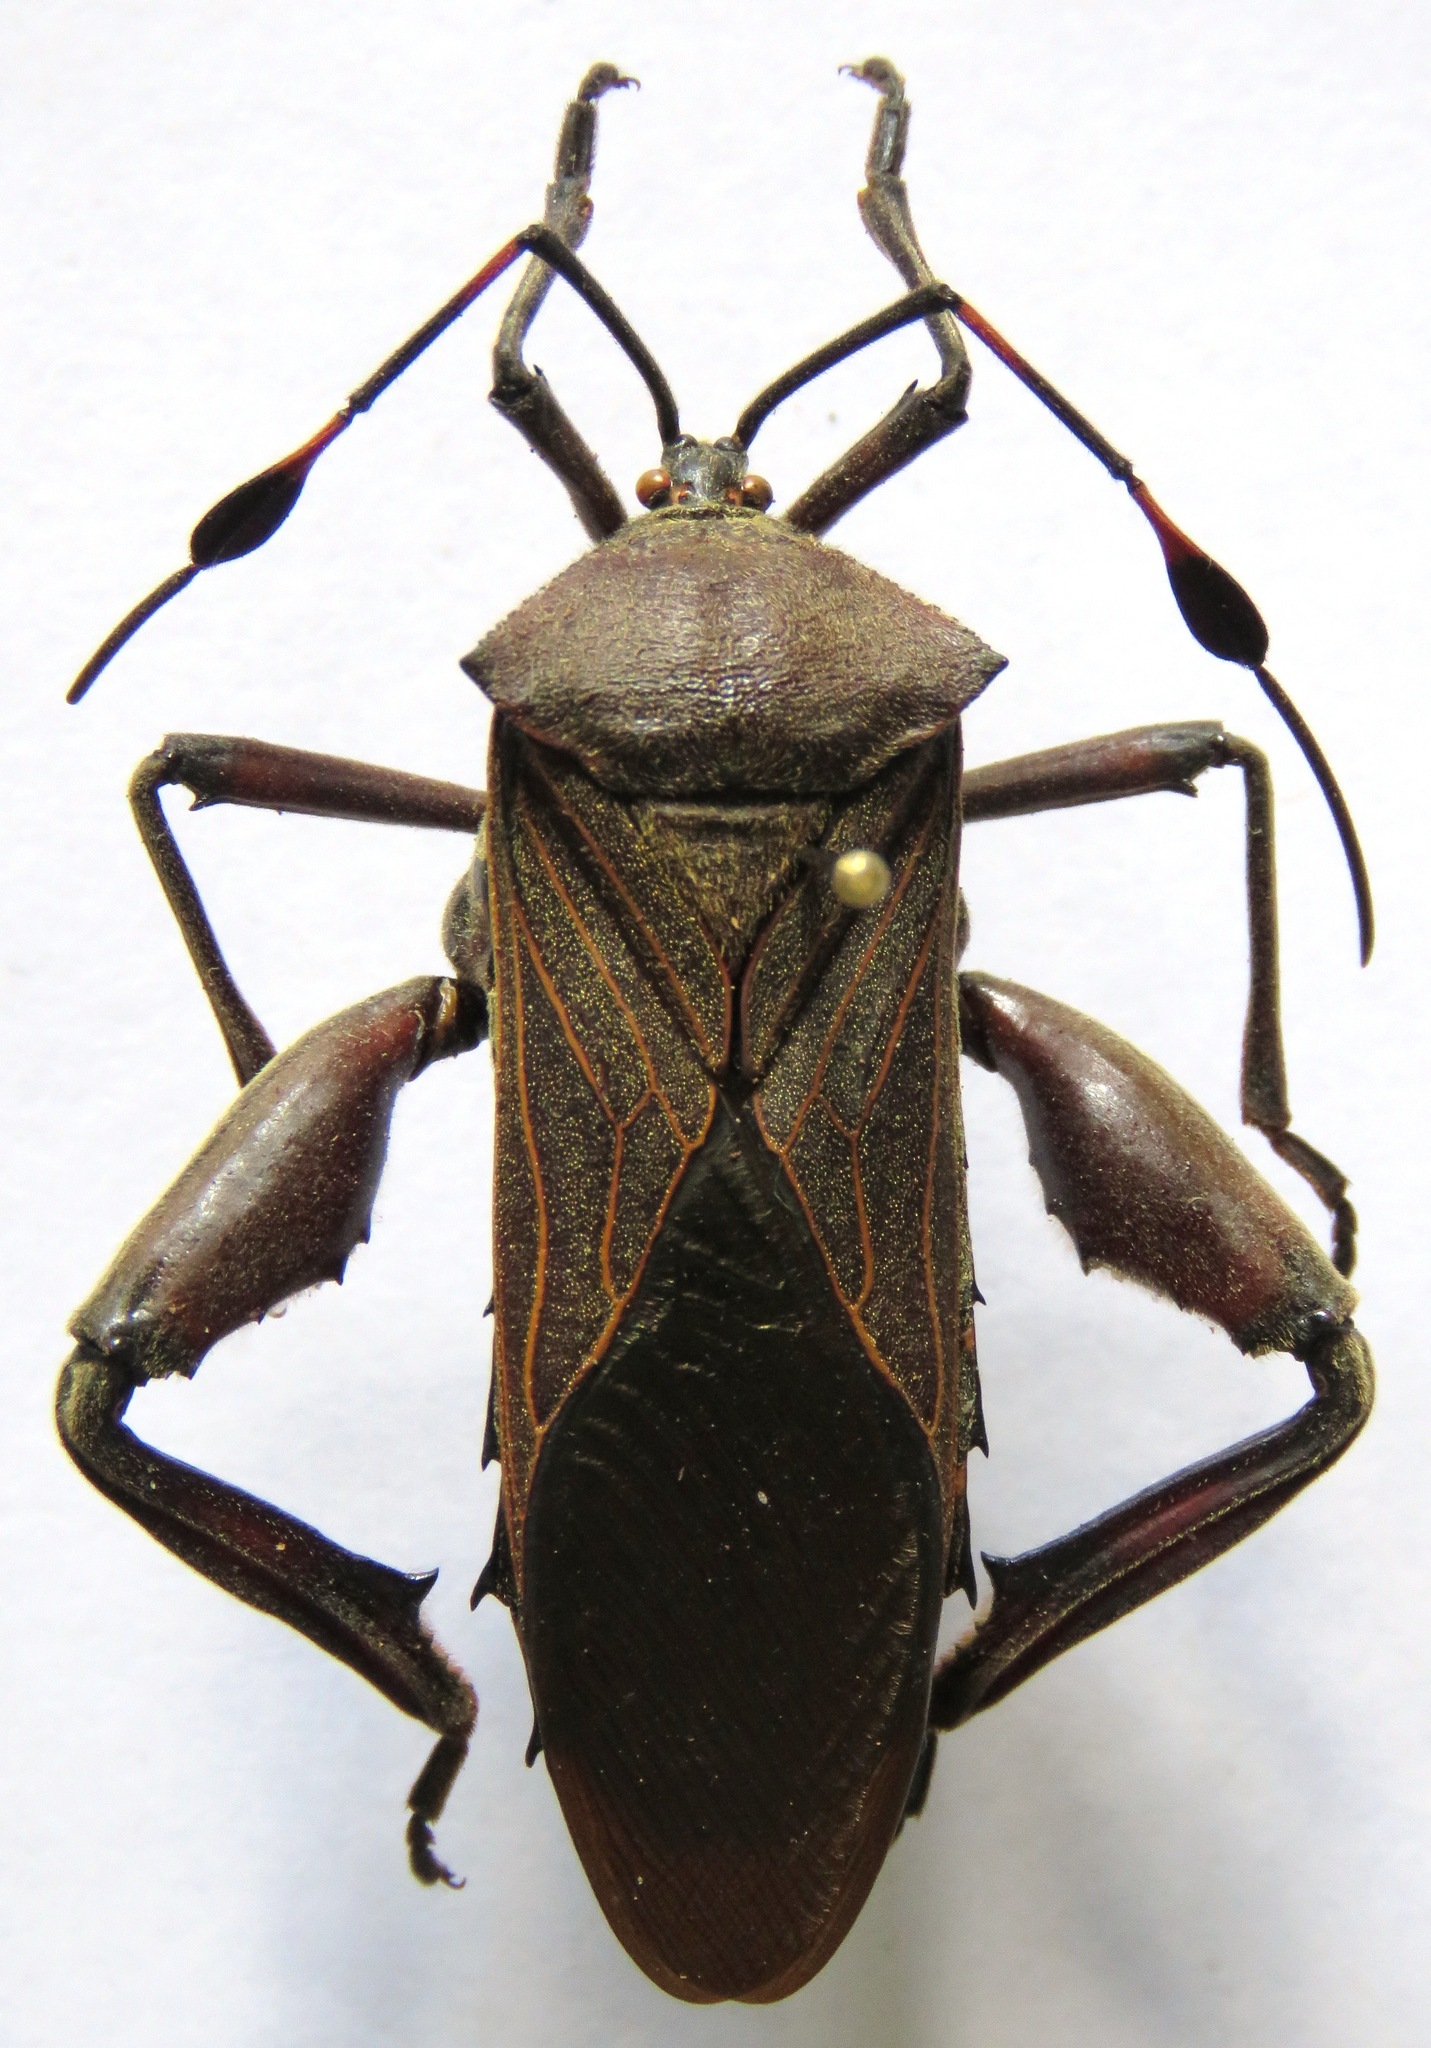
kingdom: Animalia
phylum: Arthropoda
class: Insecta
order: Hemiptera
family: Coreidae
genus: Thasus
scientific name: Thasus acutangulus
